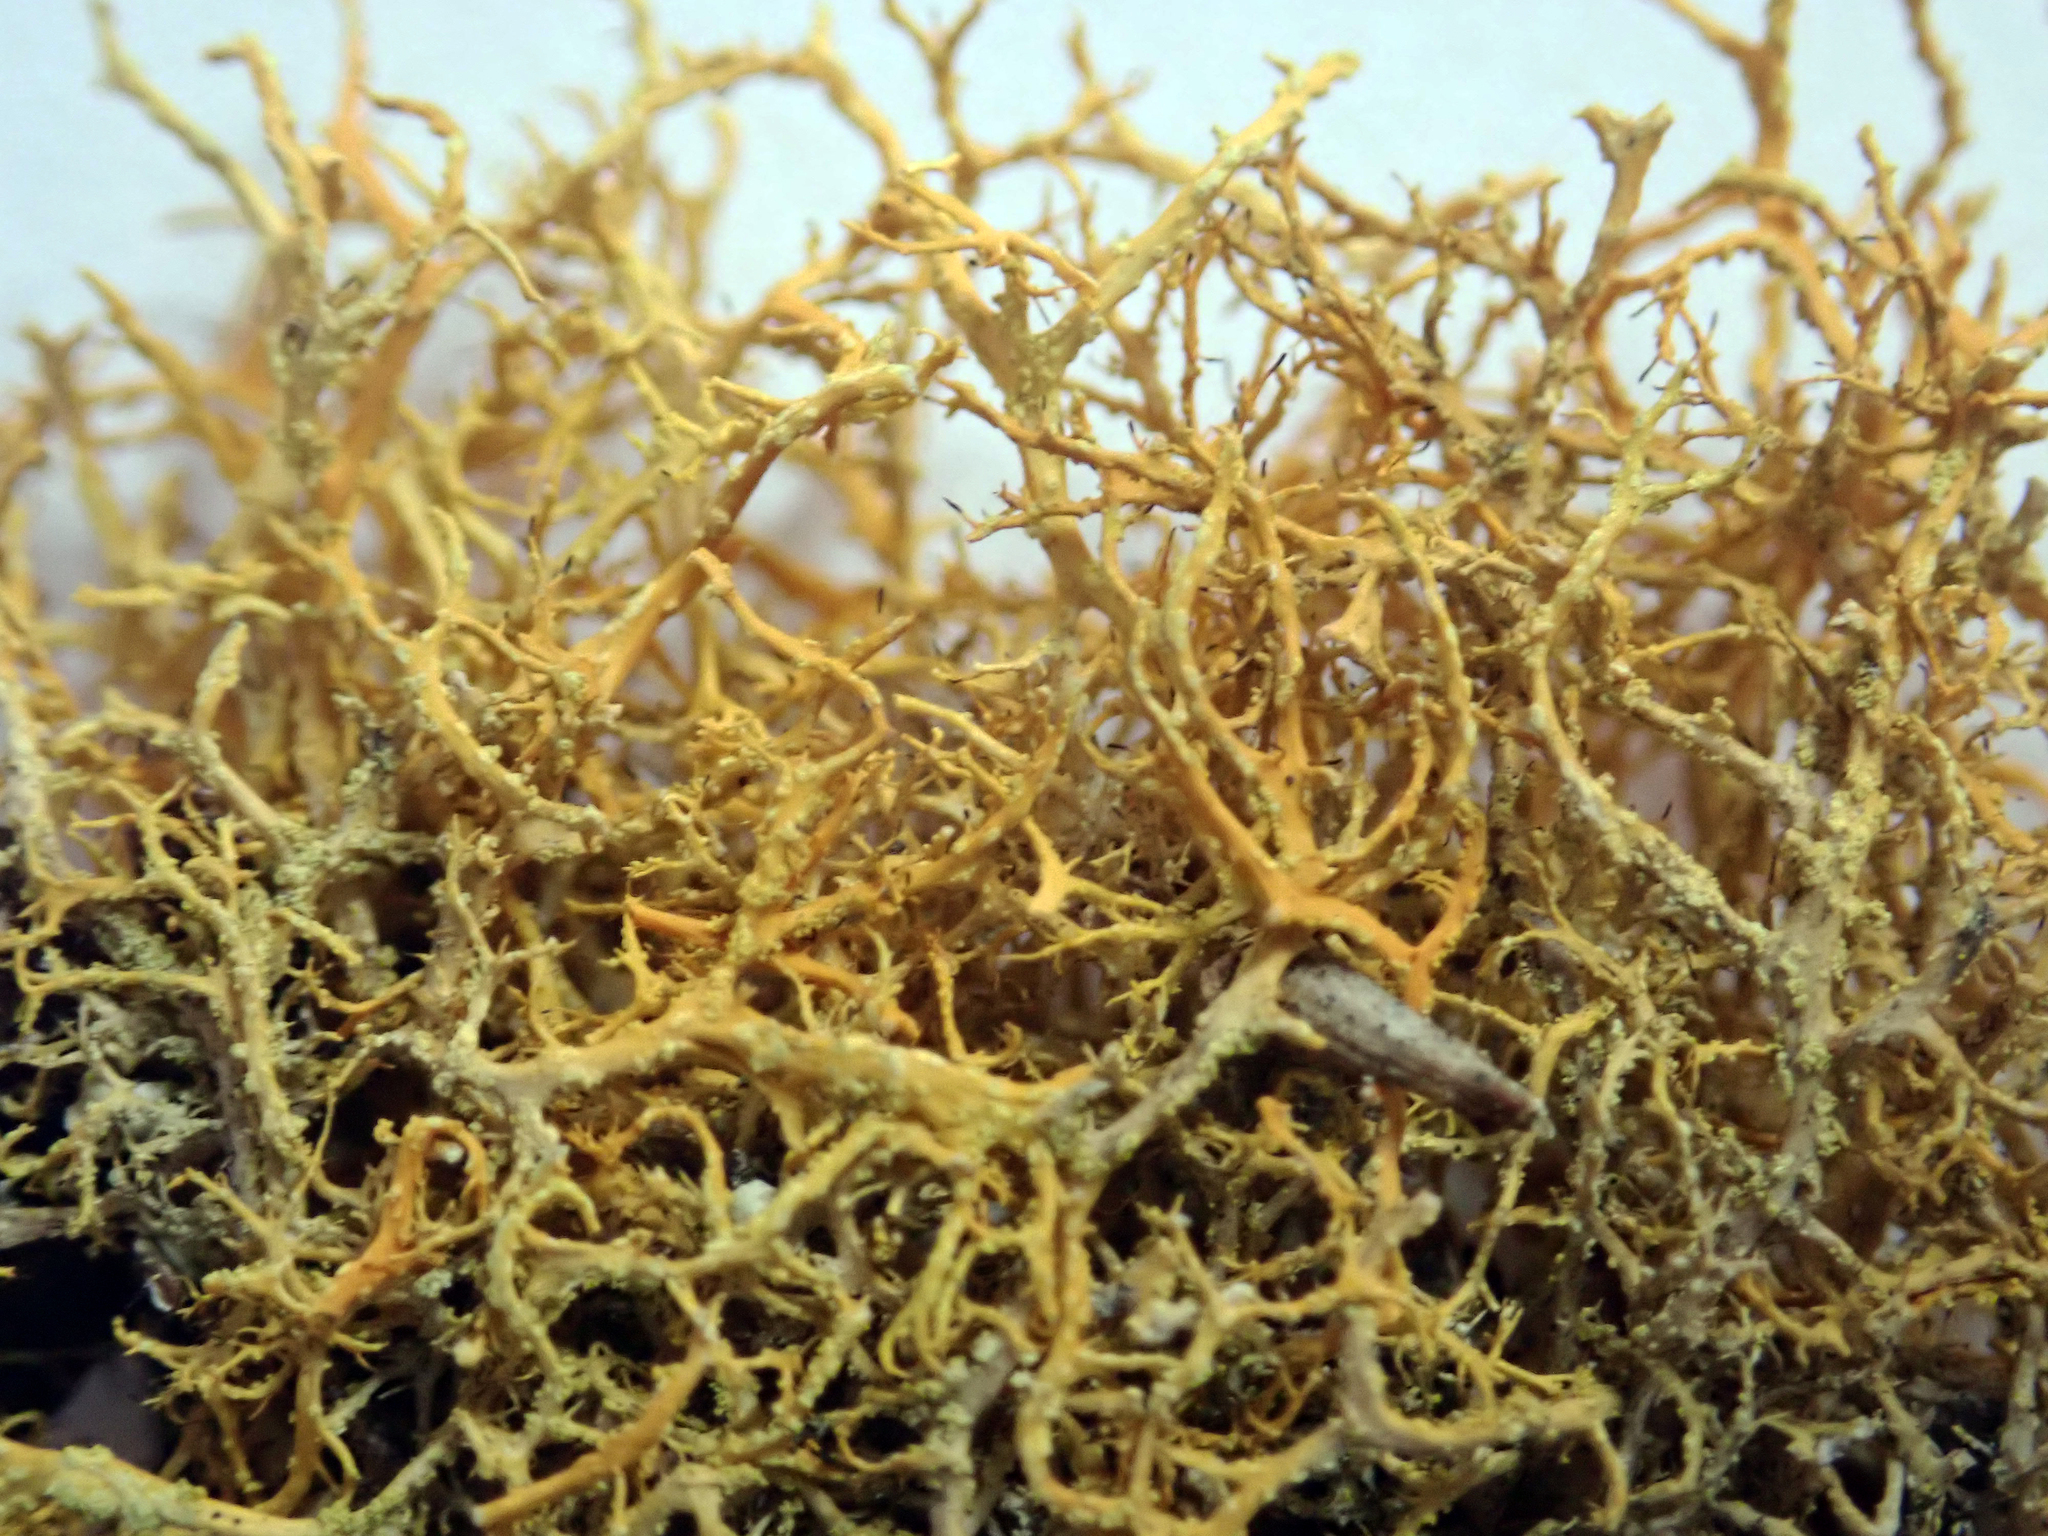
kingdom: Fungi
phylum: Ascomycota
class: Lecanoromycetes
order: Teloschistales
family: Teloschistaceae
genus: Teloschistes
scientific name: Teloschistes flavicans
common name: Golden hair-lichen
